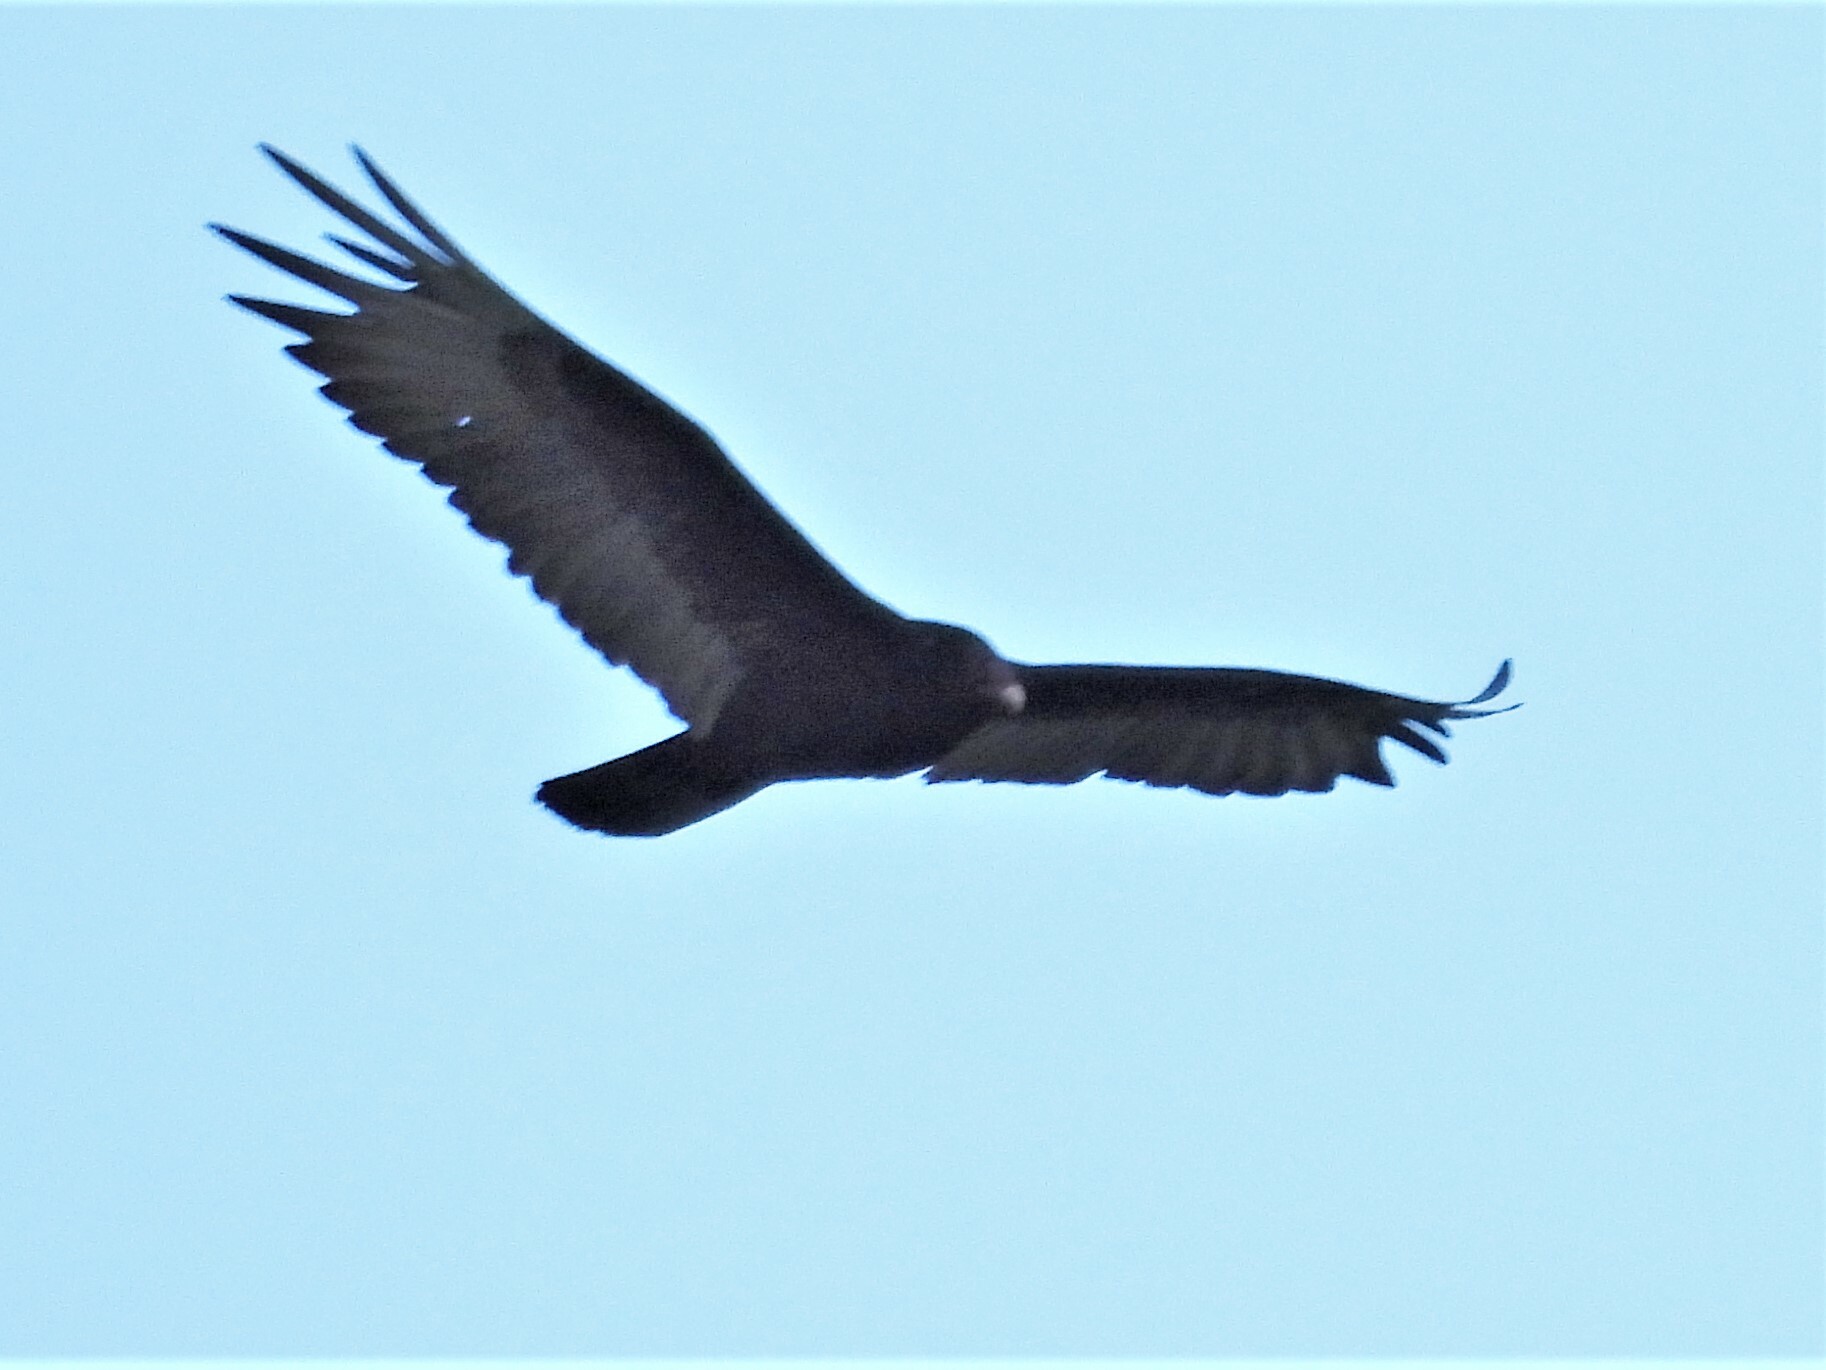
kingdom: Animalia
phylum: Chordata
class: Aves
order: Accipitriformes
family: Cathartidae
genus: Cathartes
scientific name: Cathartes aura
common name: Turkey vulture
